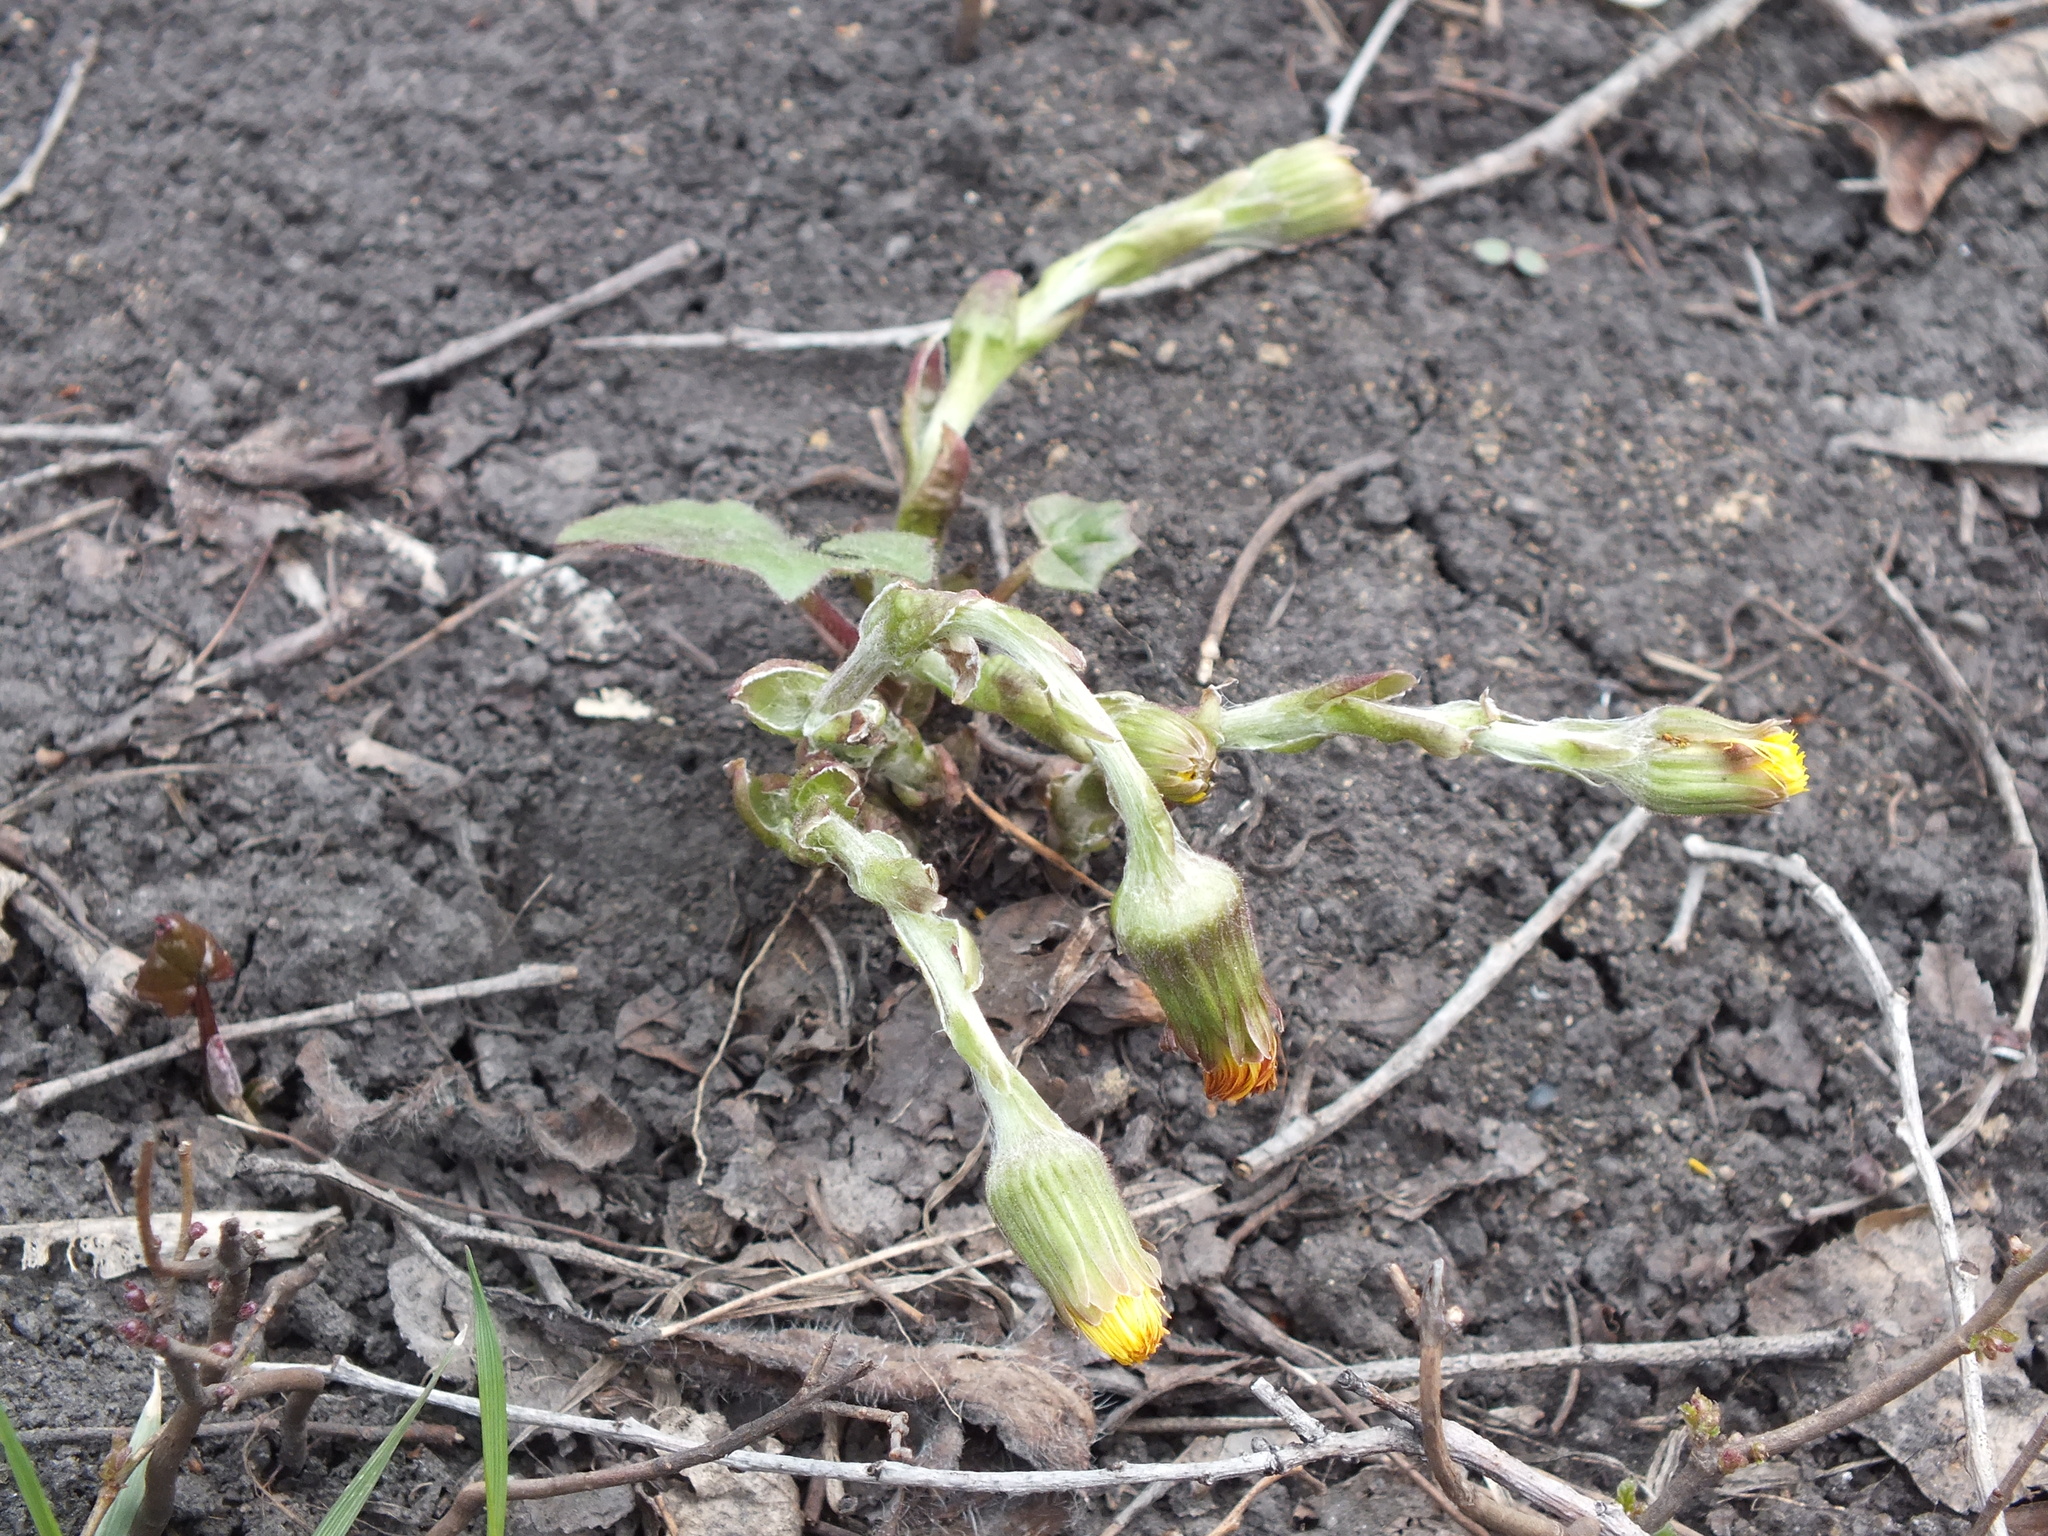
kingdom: Plantae
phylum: Tracheophyta
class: Magnoliopsida
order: Asterales
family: Asteraceae
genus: Tussilago
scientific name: Tussilago farfara
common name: Coltsfoot
